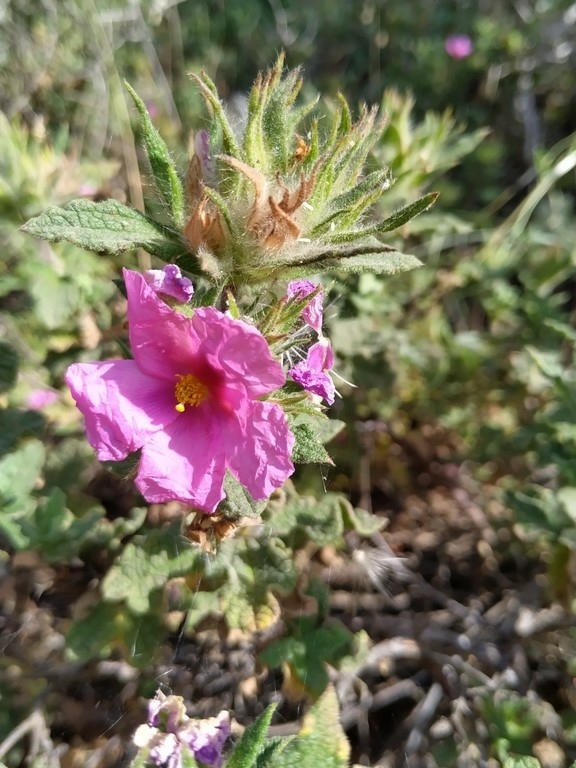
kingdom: Plantae
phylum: Tracheophyta
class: Magnoliopsida
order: Malvales
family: Cistaceae
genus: Cistus
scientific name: Cistus crispus
